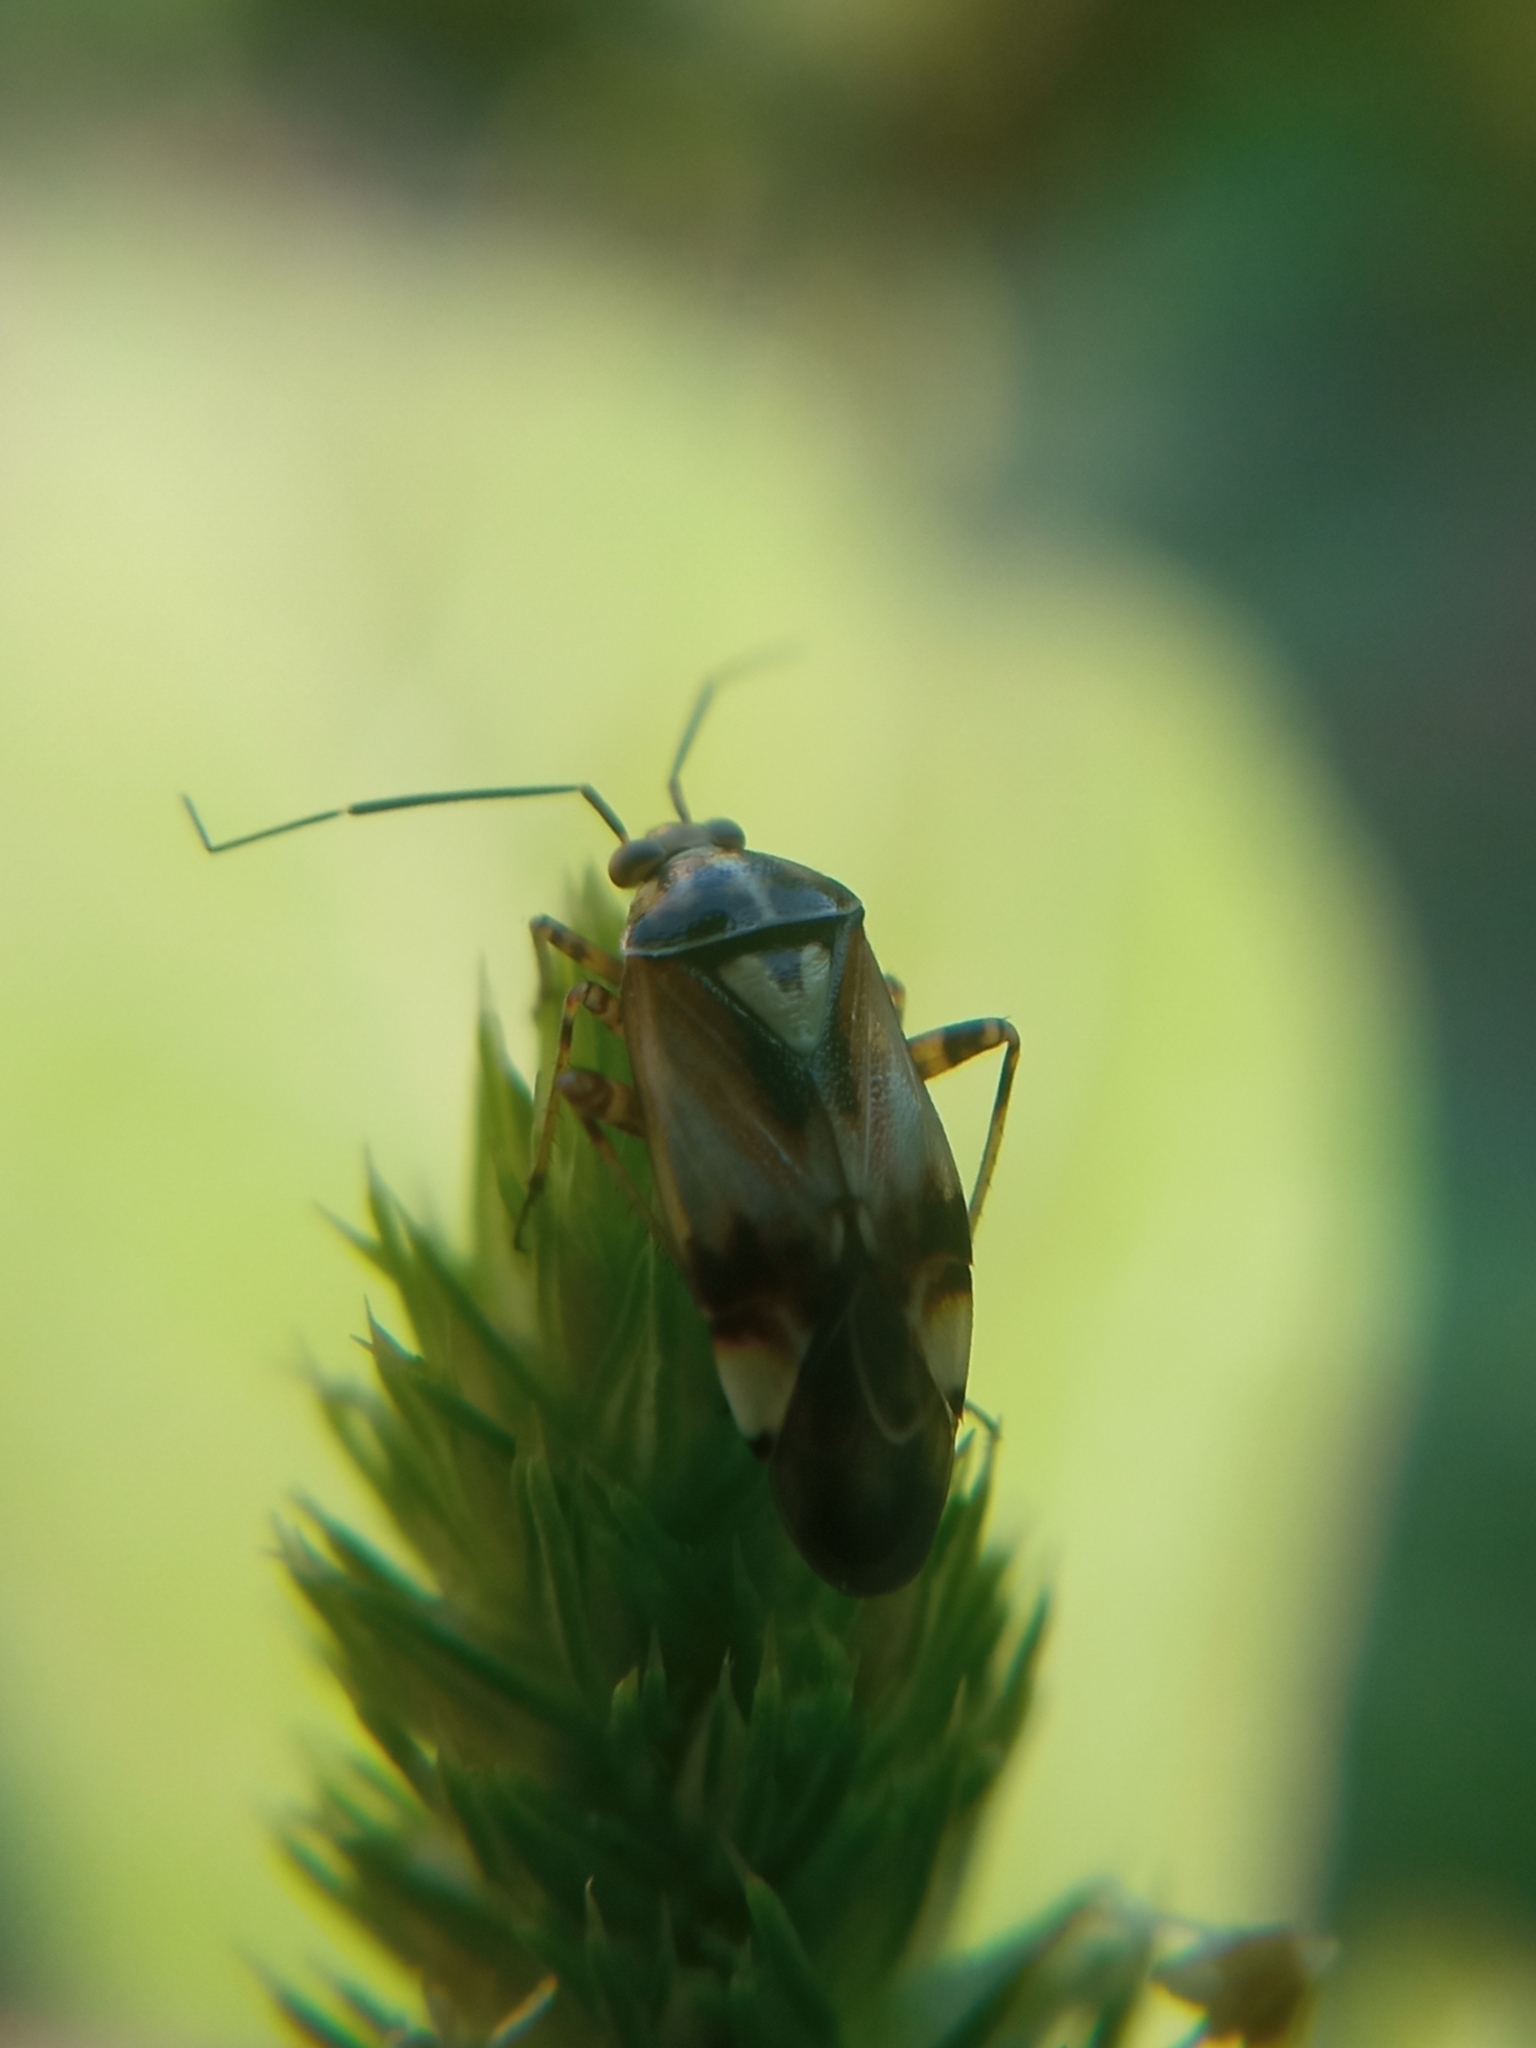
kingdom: Animalia
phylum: Arthropoda
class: Insecta
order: Hemiptera
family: Miridae
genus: Lygus
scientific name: Lygus pratensis
